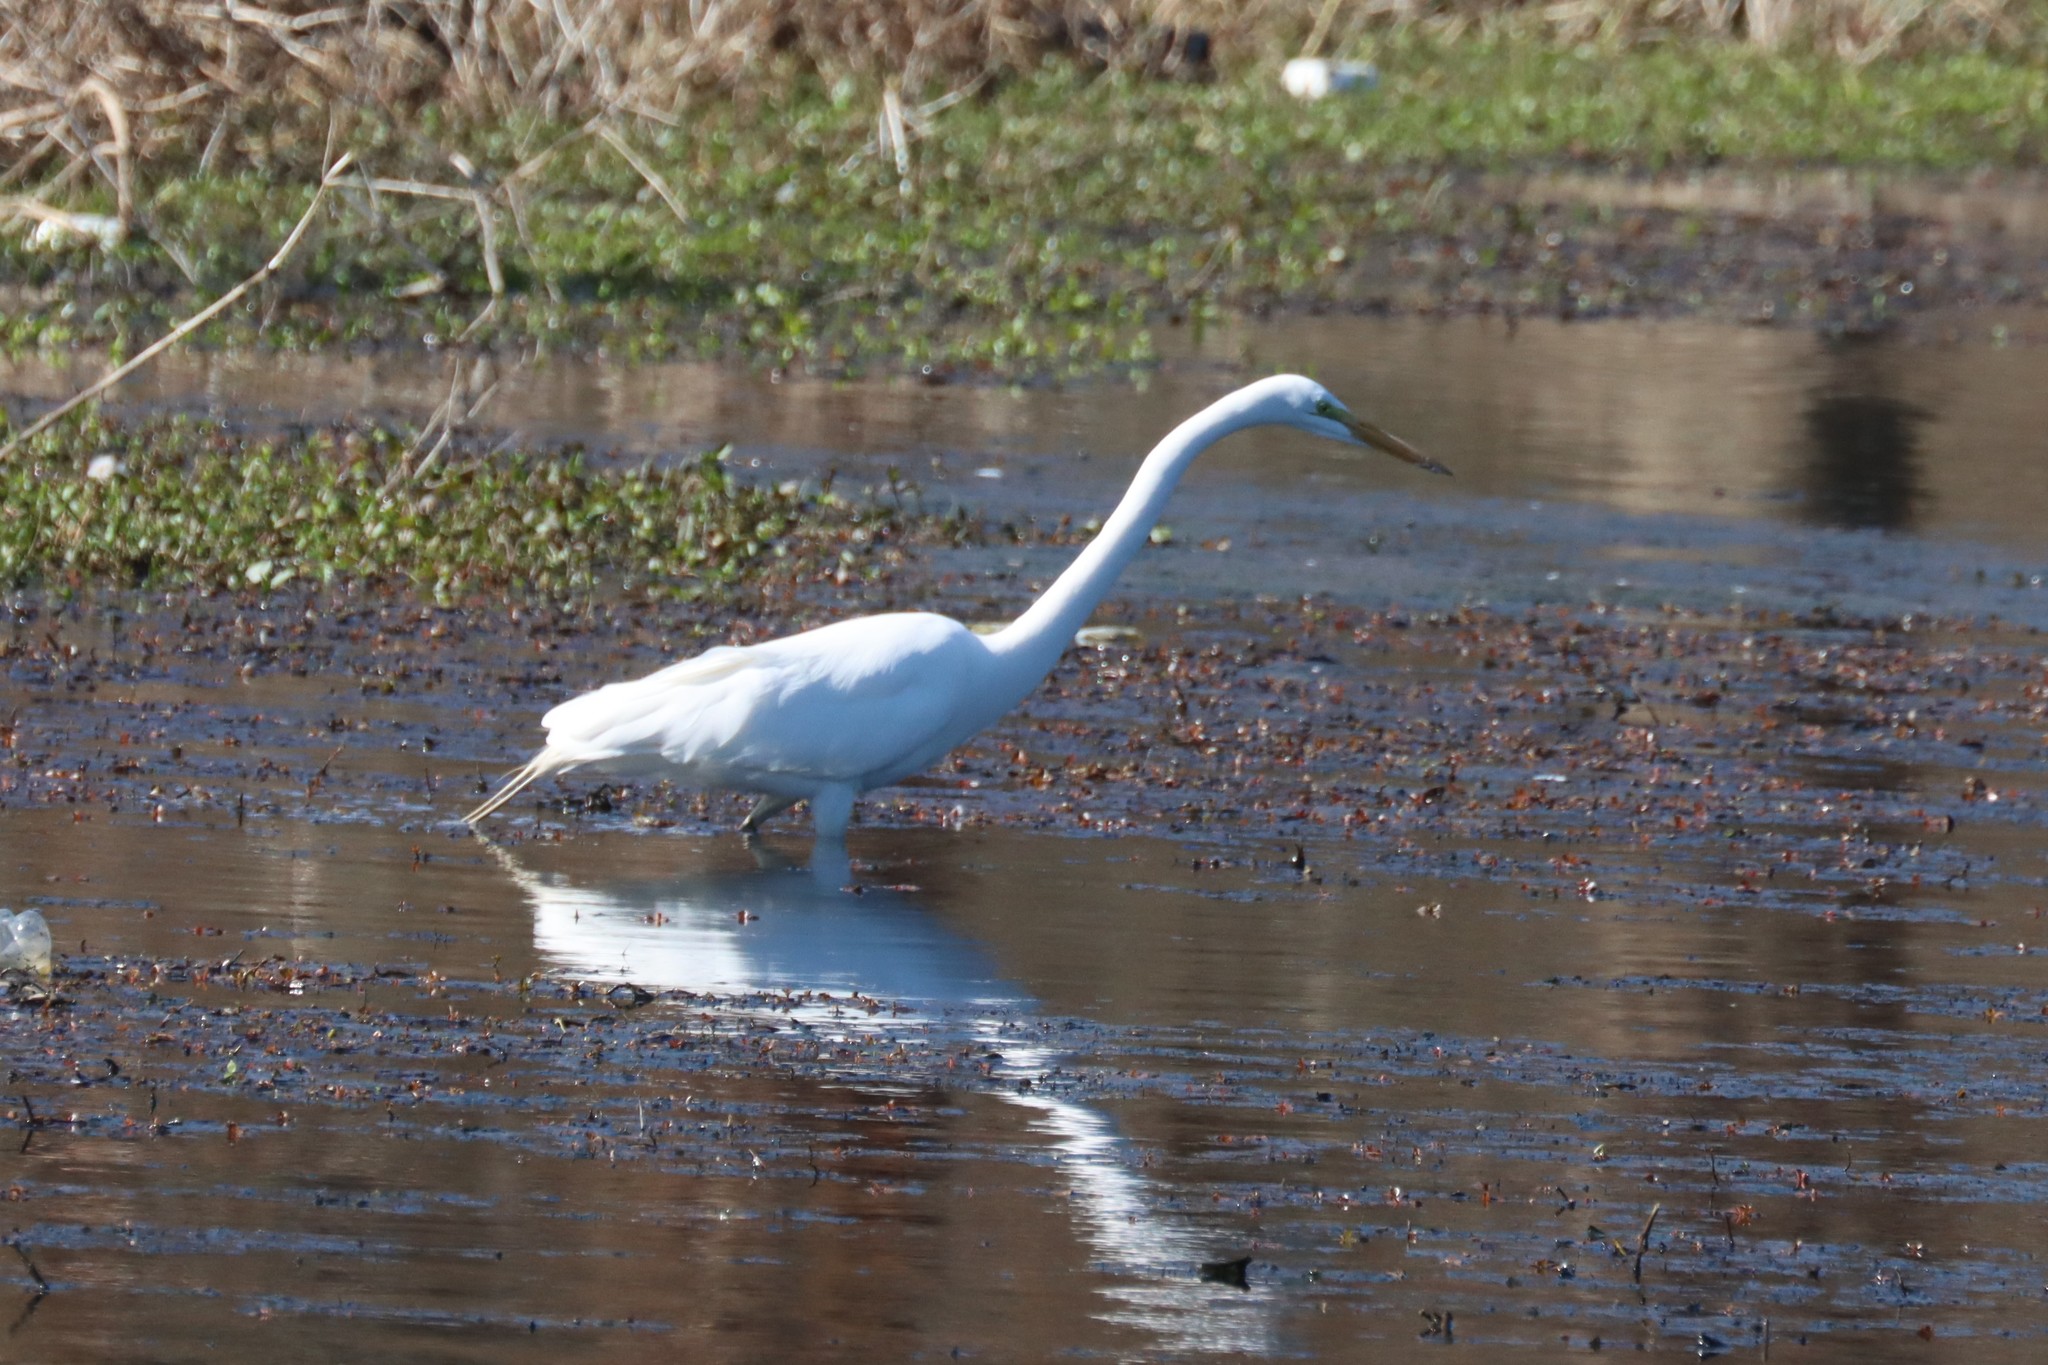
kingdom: Animalia
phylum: Chordata
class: Aves
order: Pelecaniformes
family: Ardeidae
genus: Ardea
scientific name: Ardea alba
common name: Great egret
